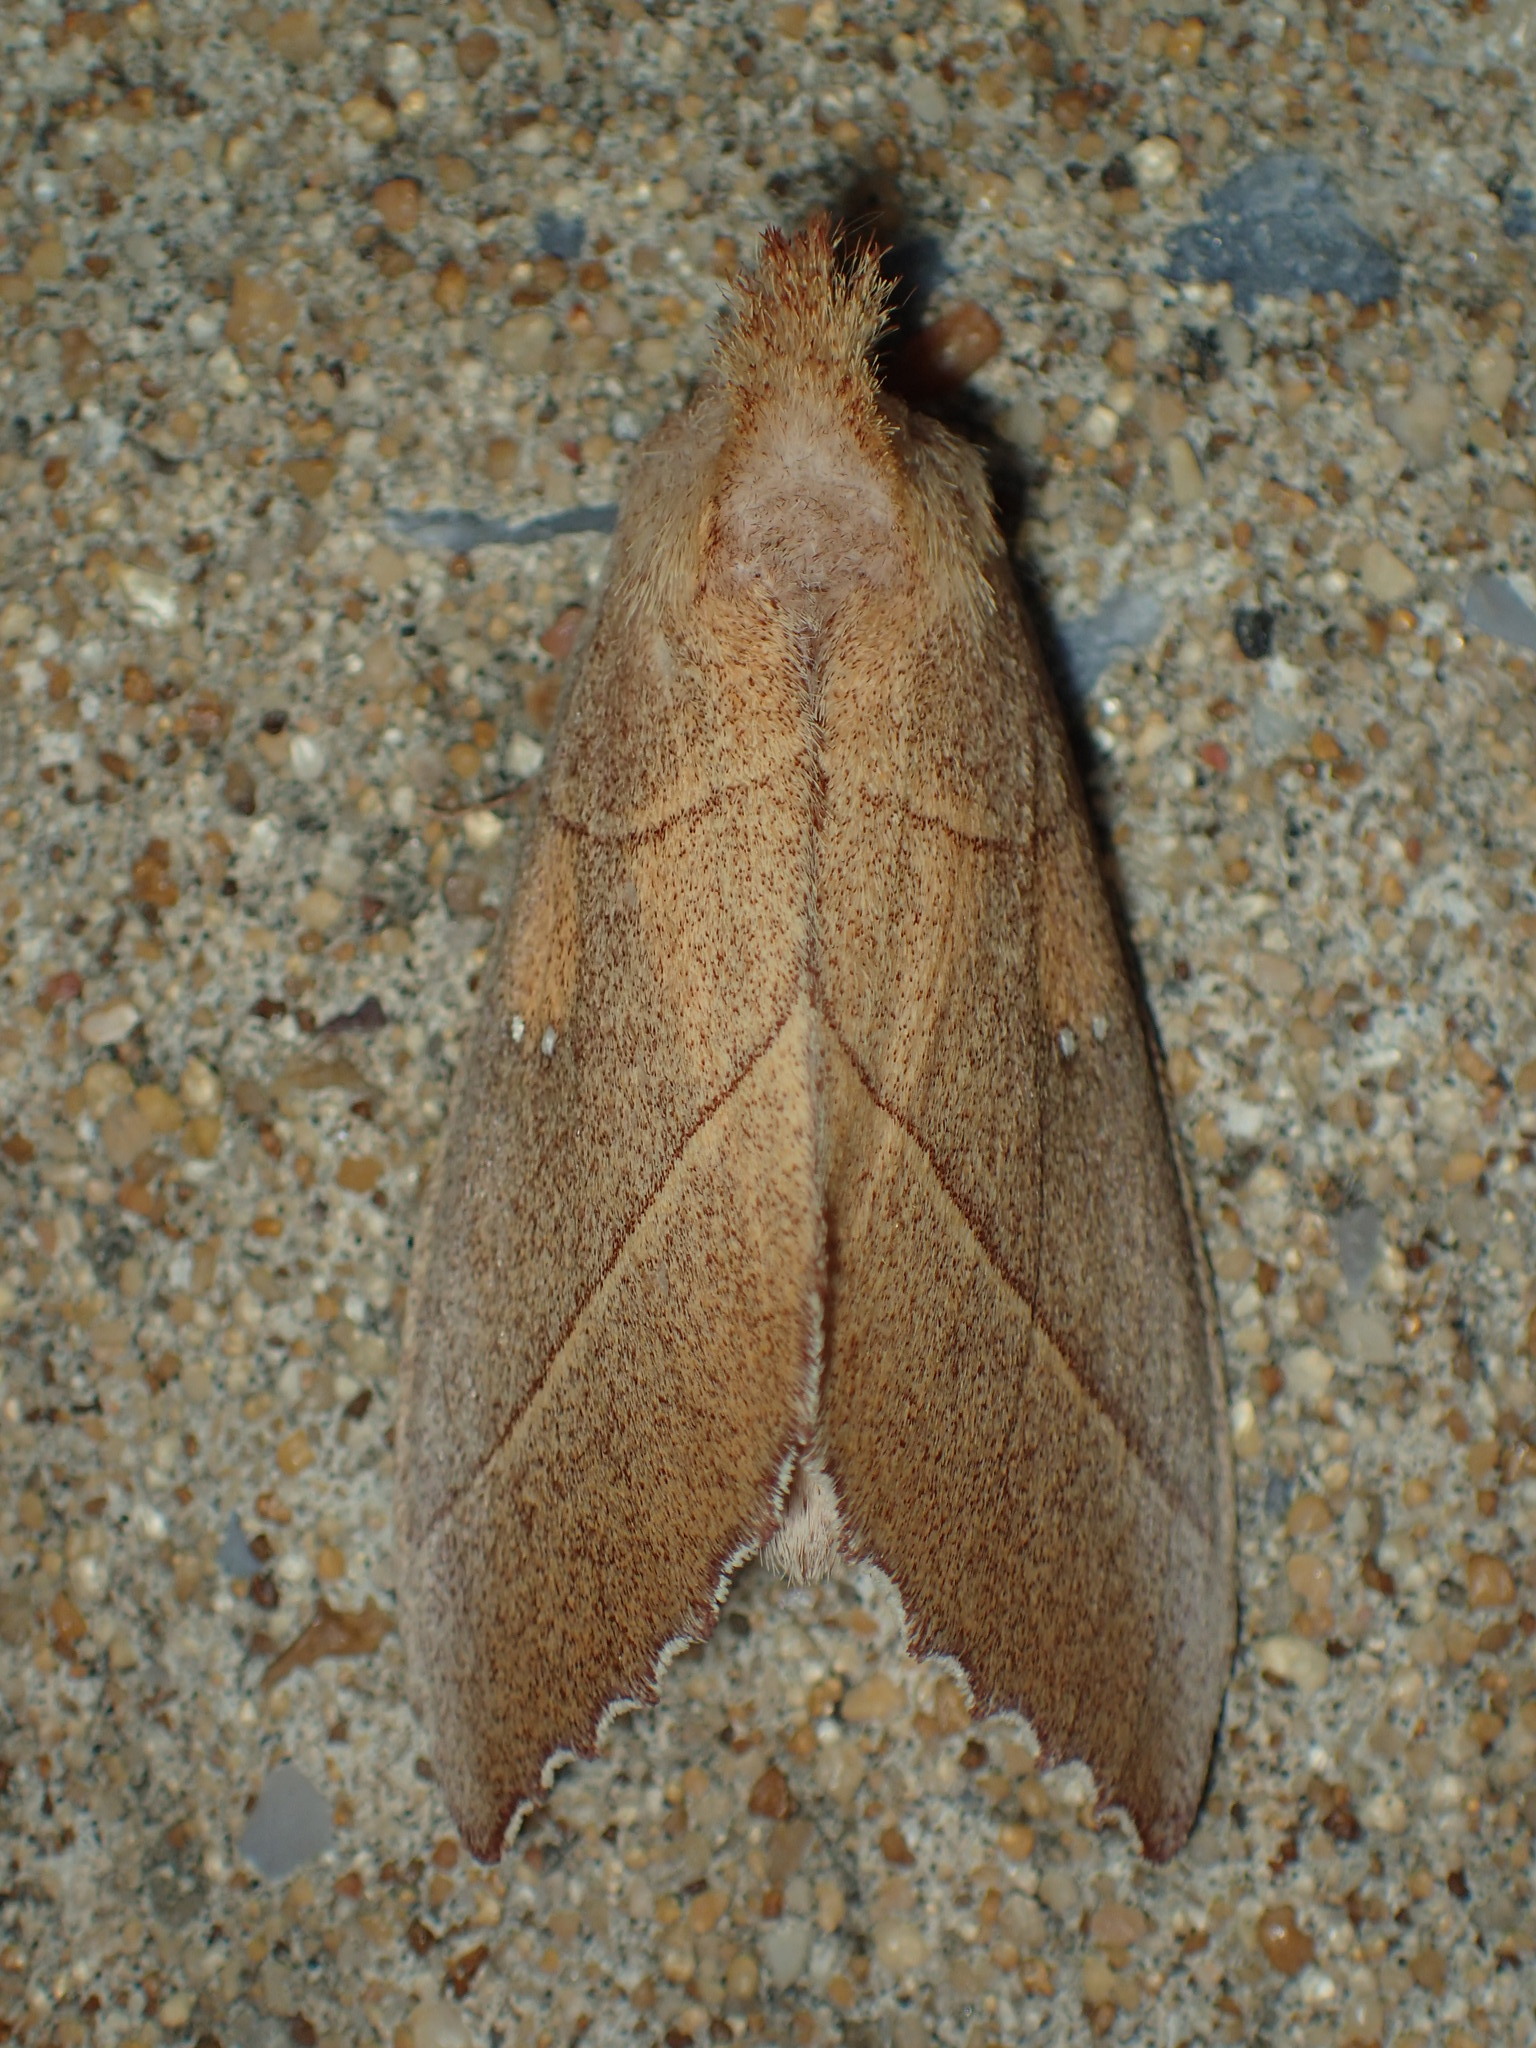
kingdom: Animalia
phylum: Arthropoda
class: Insecta
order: Lepidoptera
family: Notodontidae
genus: Nadata
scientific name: Nadata gibbosa
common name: White-dotted prominent
